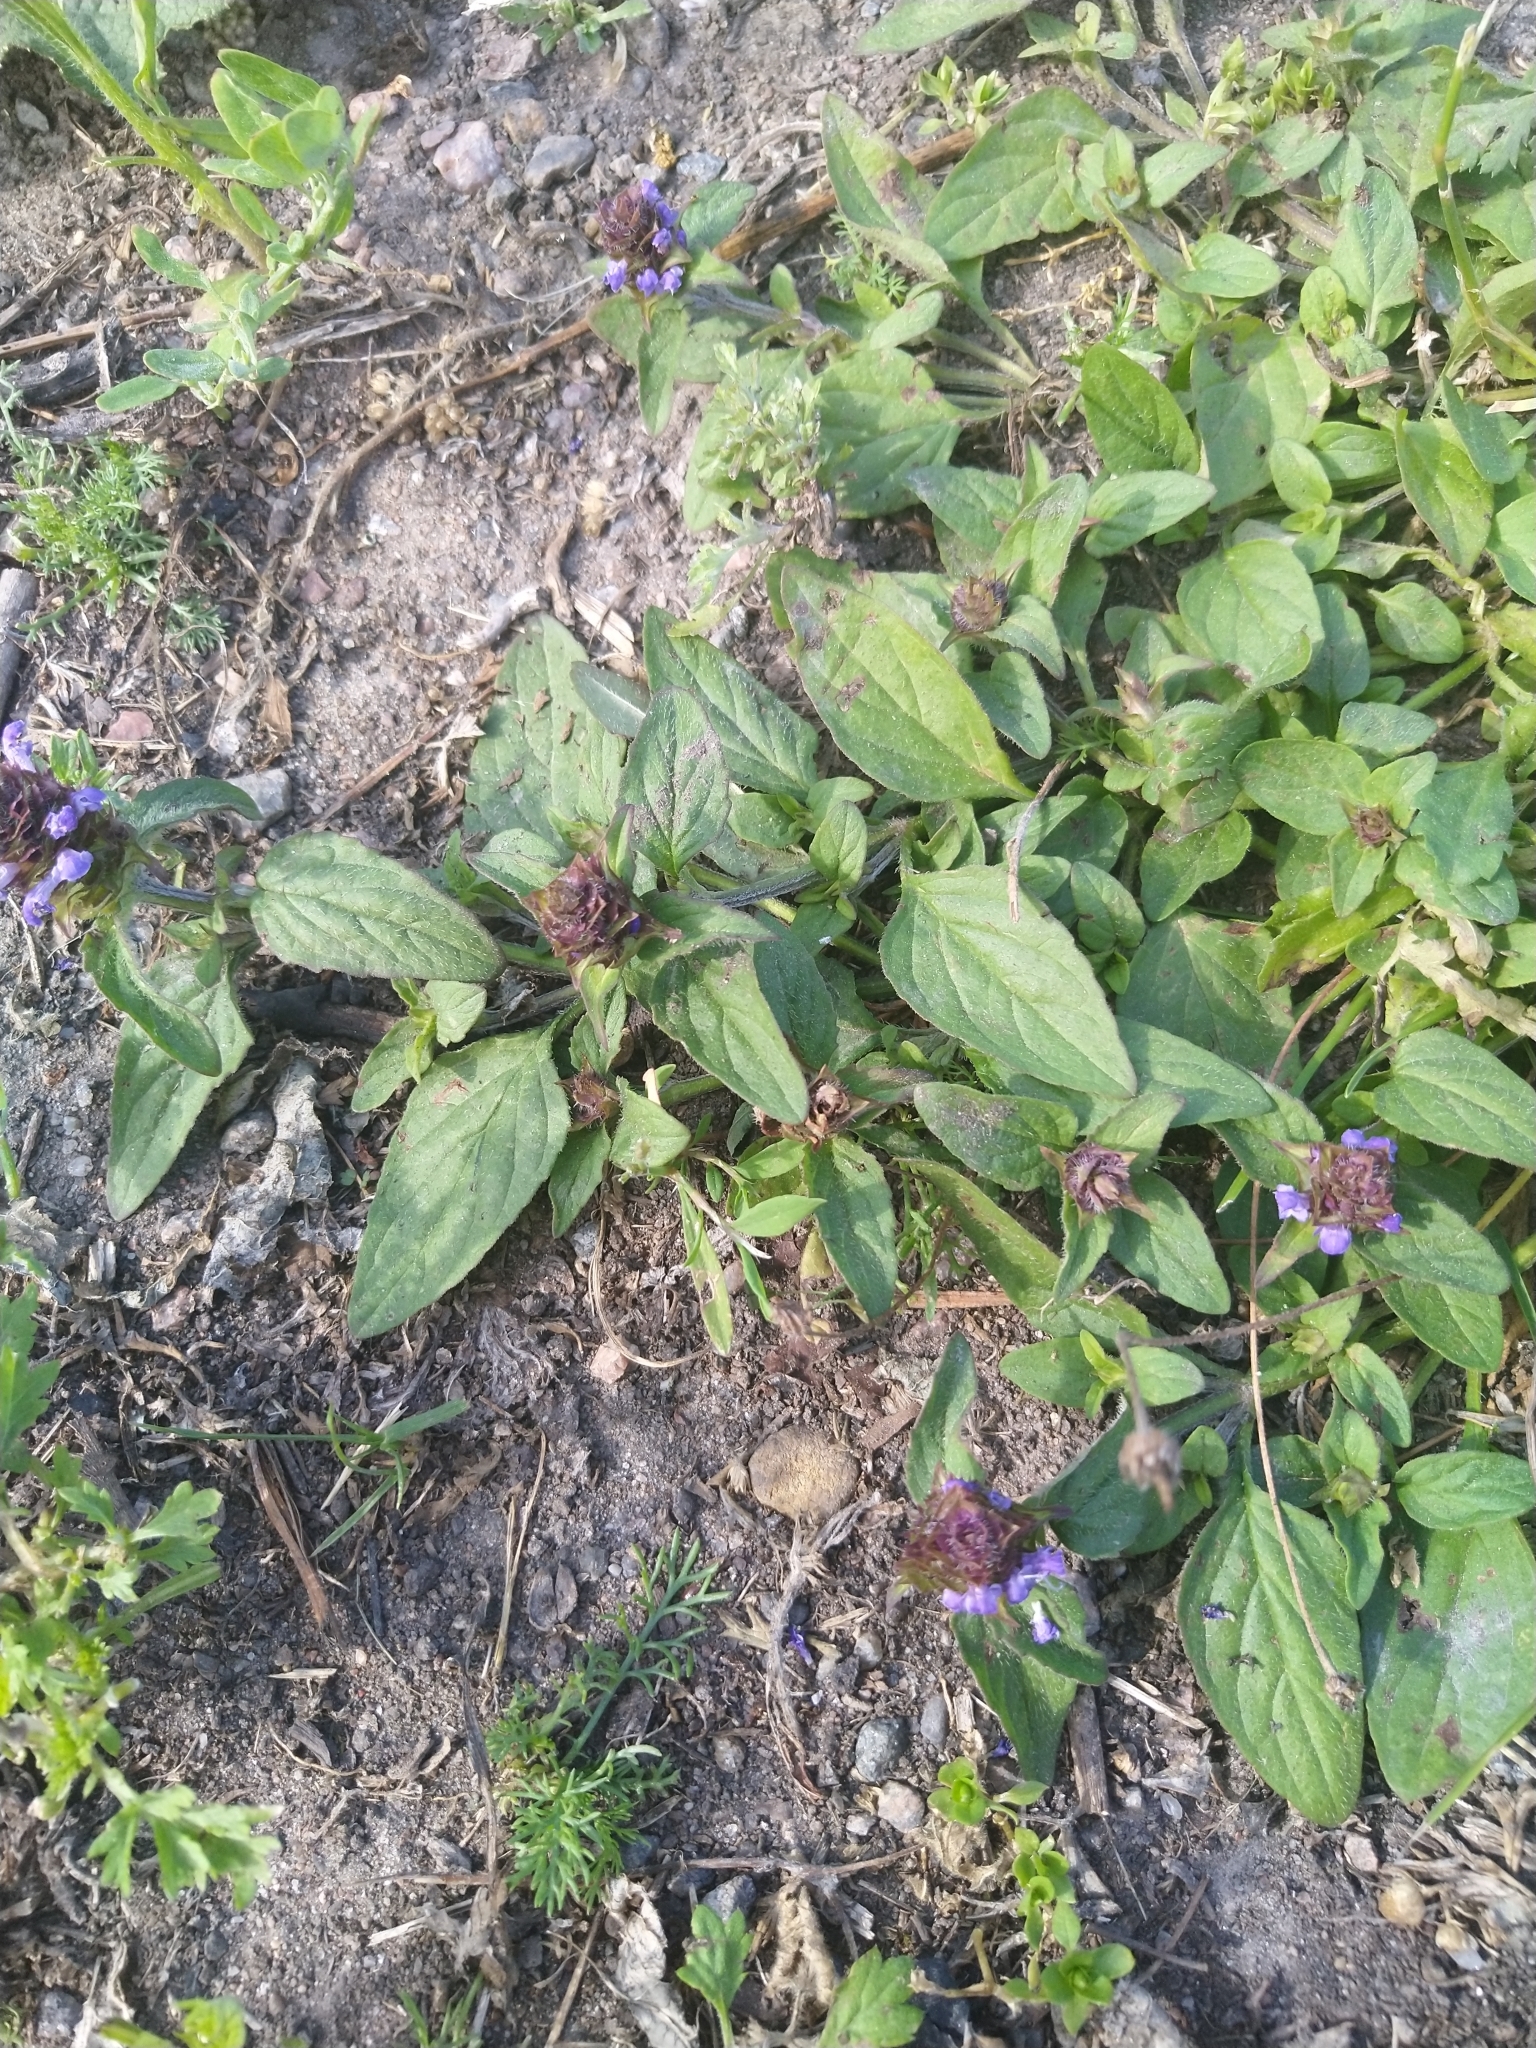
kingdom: Plantae
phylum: Tracheophyta
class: Magnoliopsida
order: Lamiales
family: Lamiaceae
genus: Prunella
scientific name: Prunella vulgaris
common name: Heal-all
